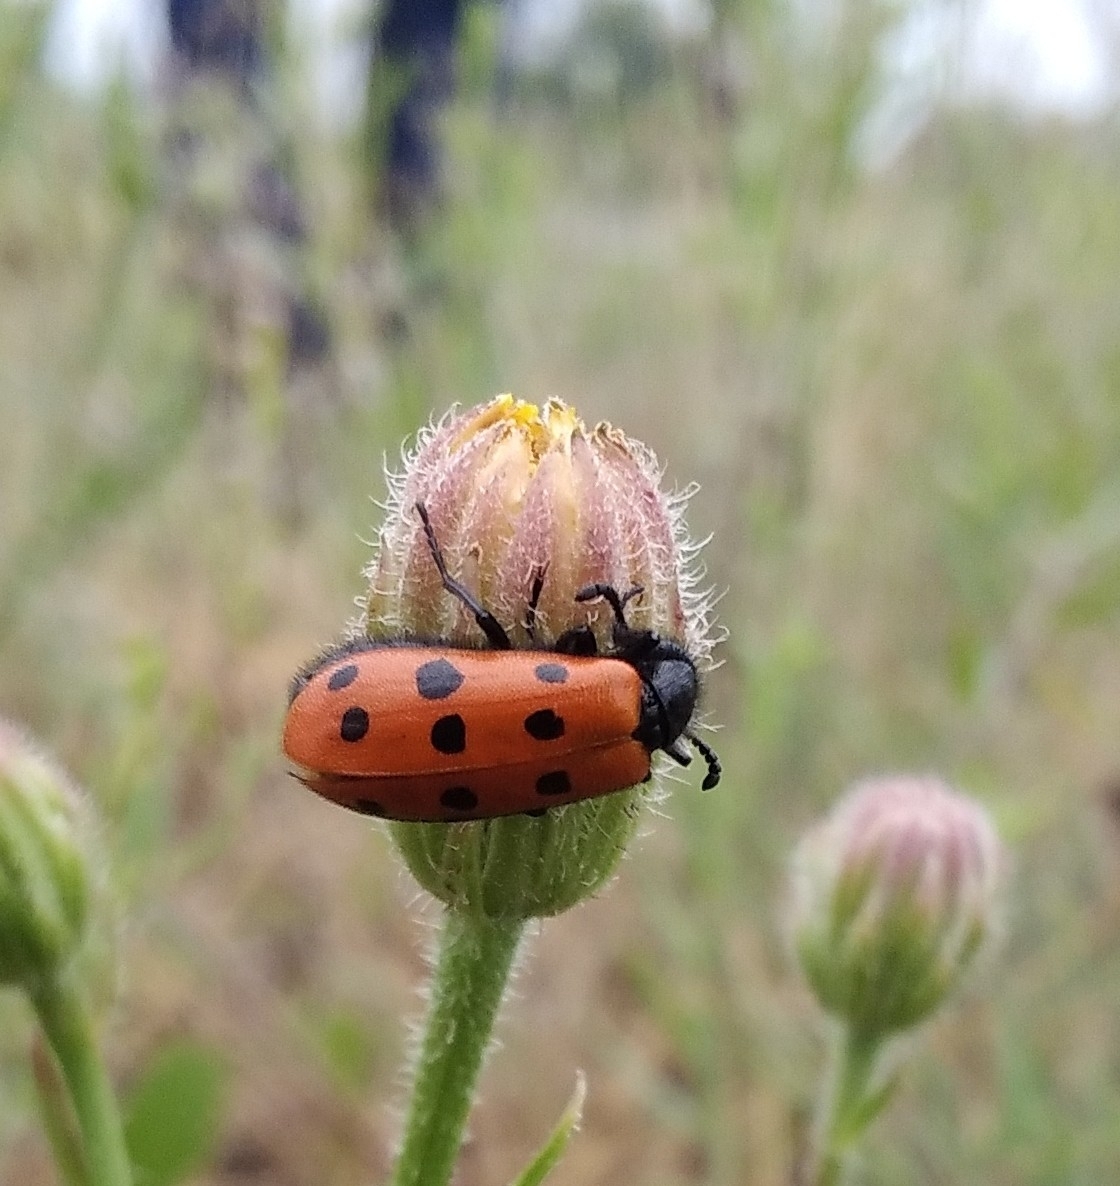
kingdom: Animalia
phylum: Arthropoda
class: Insecta
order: Coleoptera
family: Meloidae
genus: Mylabris
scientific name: Mylabris crocata
